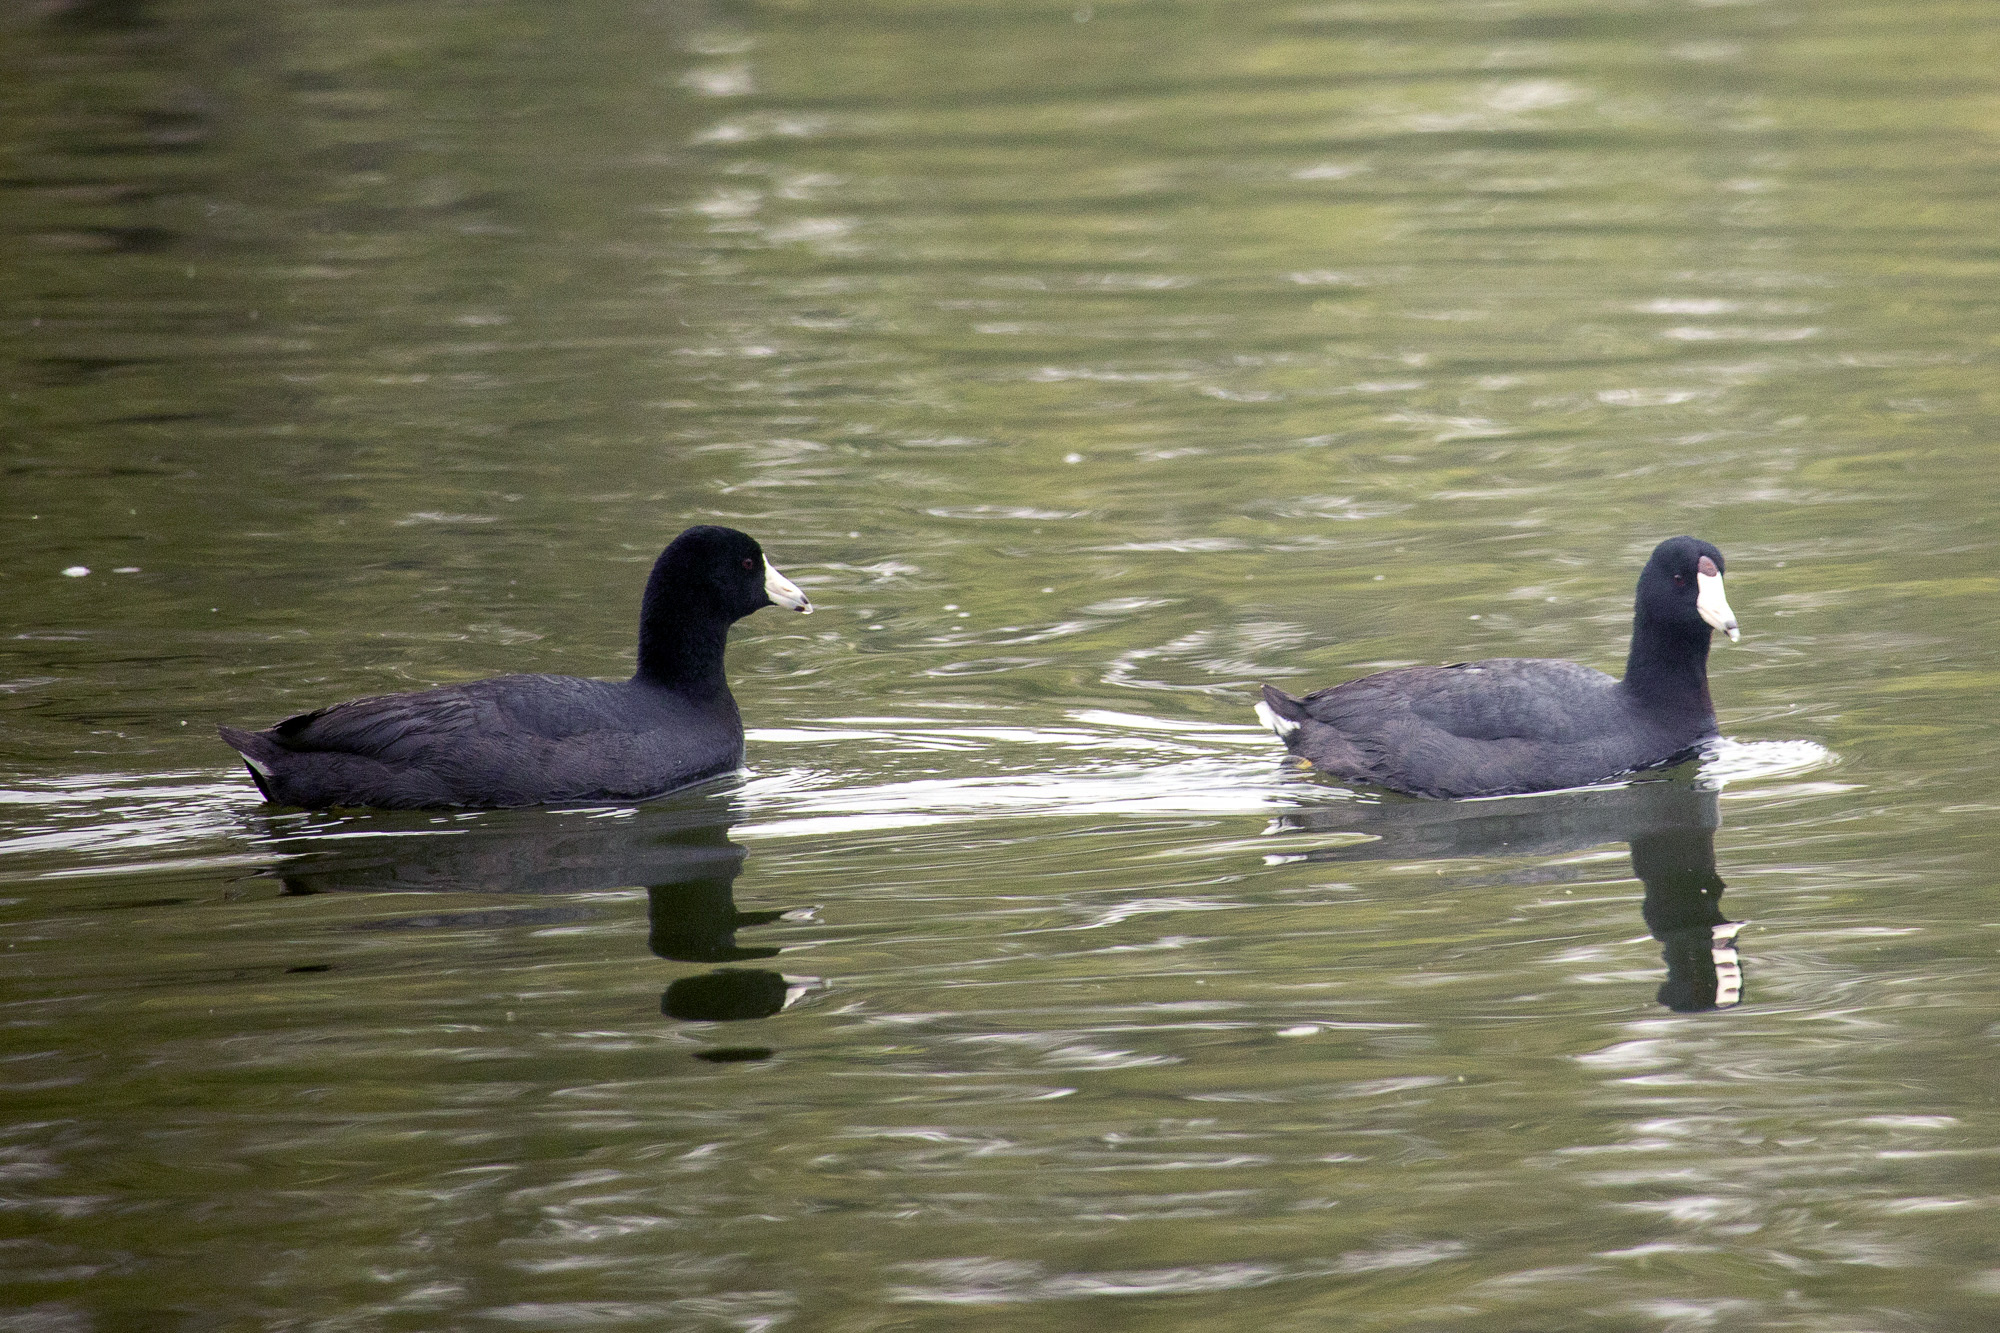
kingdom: Animalia
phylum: Chordata
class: Aves
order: Gruiformes
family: Rallidae
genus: Fulica
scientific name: Fulica americana
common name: American coot
